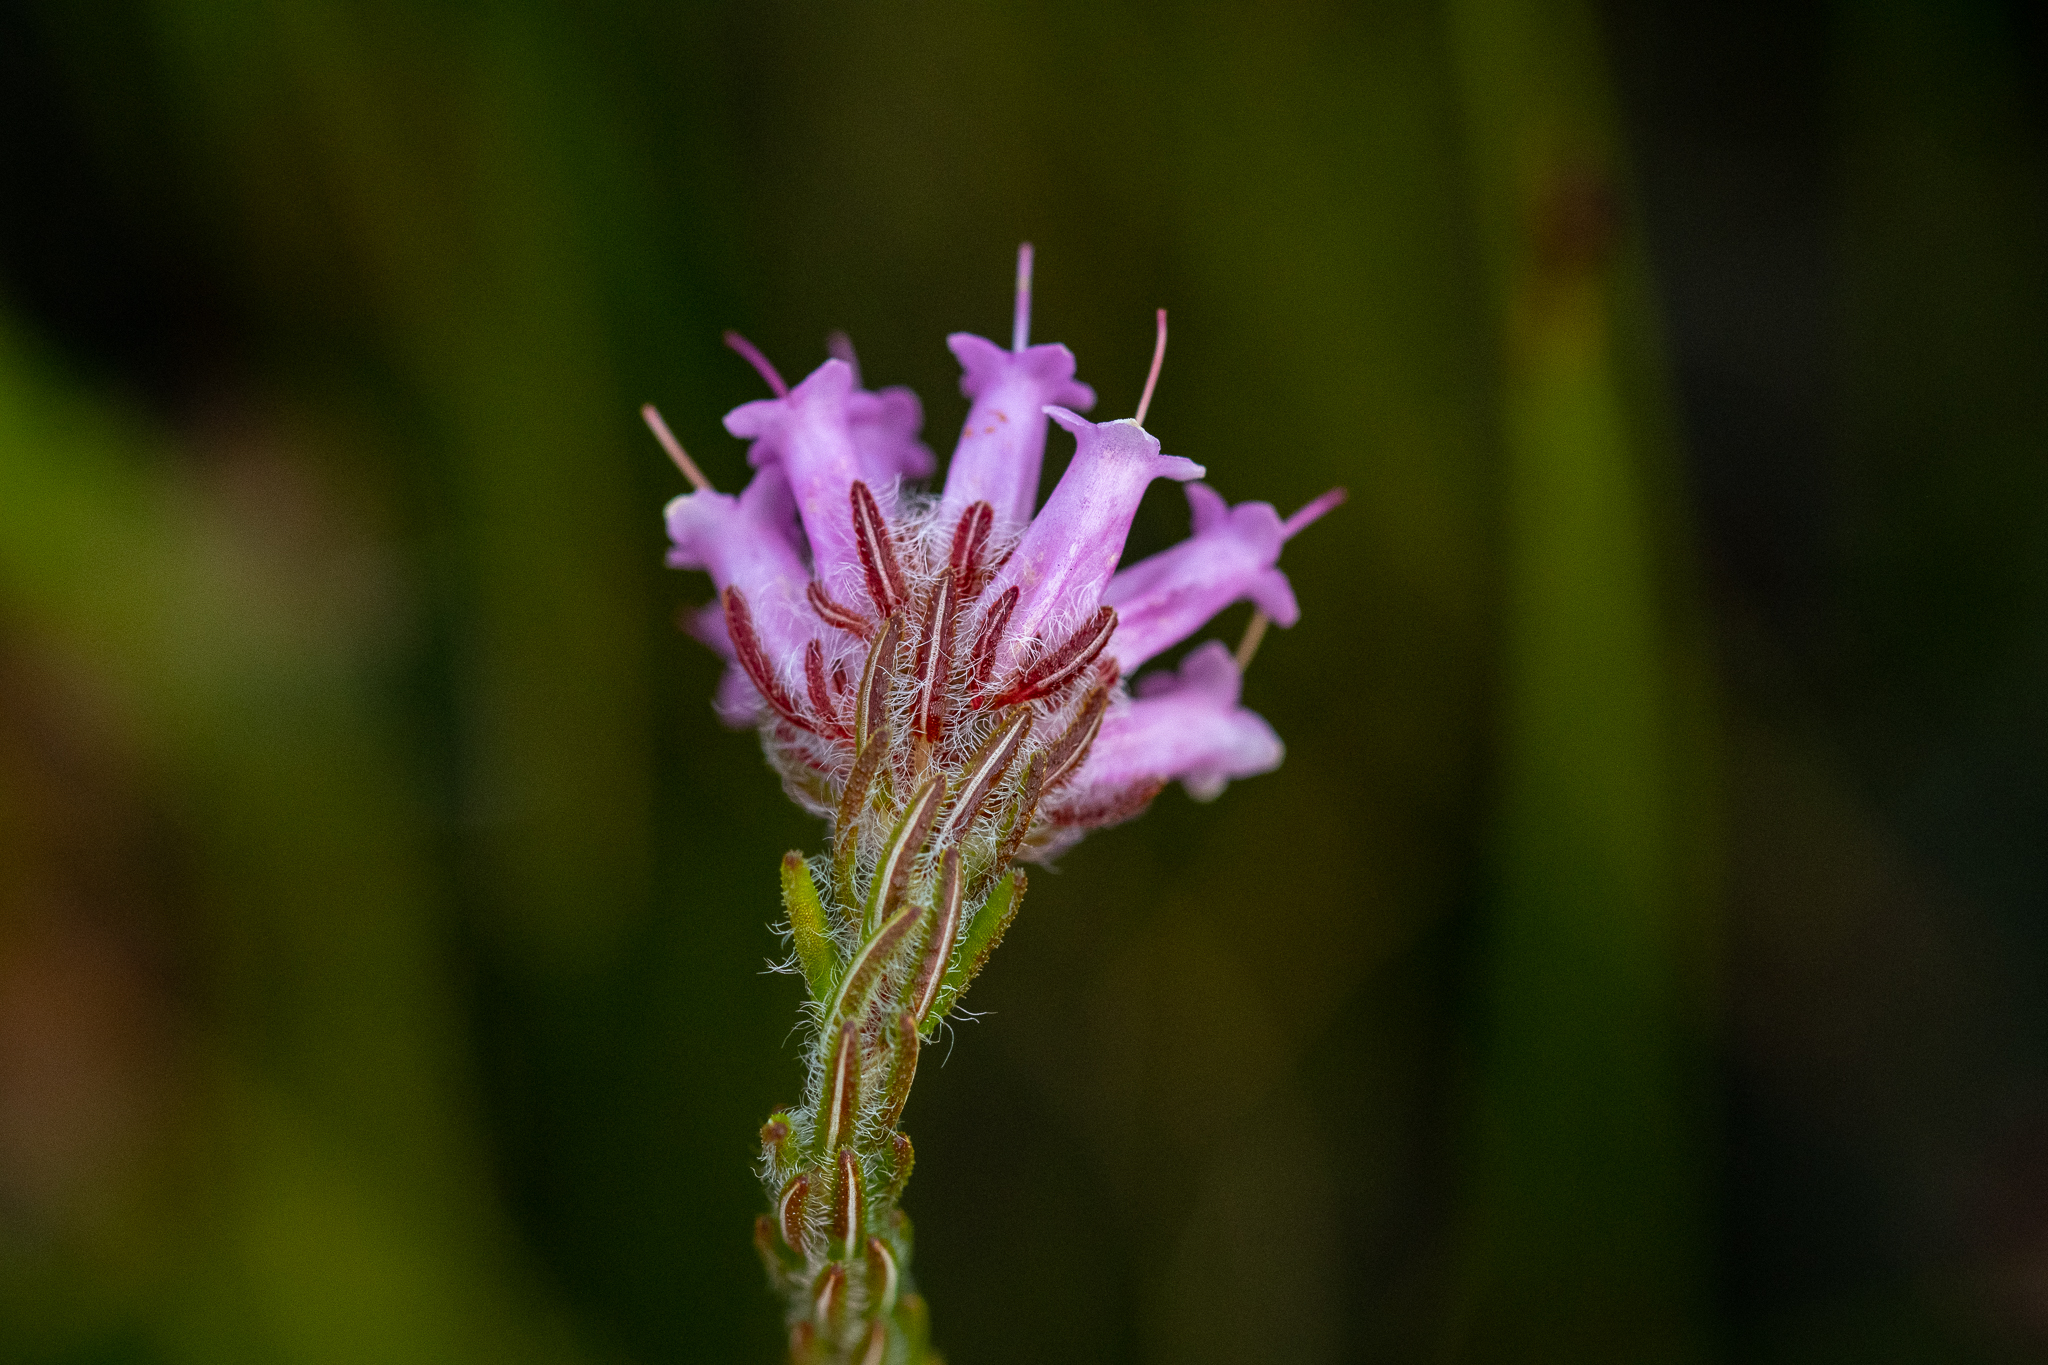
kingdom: Plantae
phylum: Tracheophyta
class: Magnoliopsida
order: Ericales
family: Ericaceae
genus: Erica
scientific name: Erica barbigeroides
